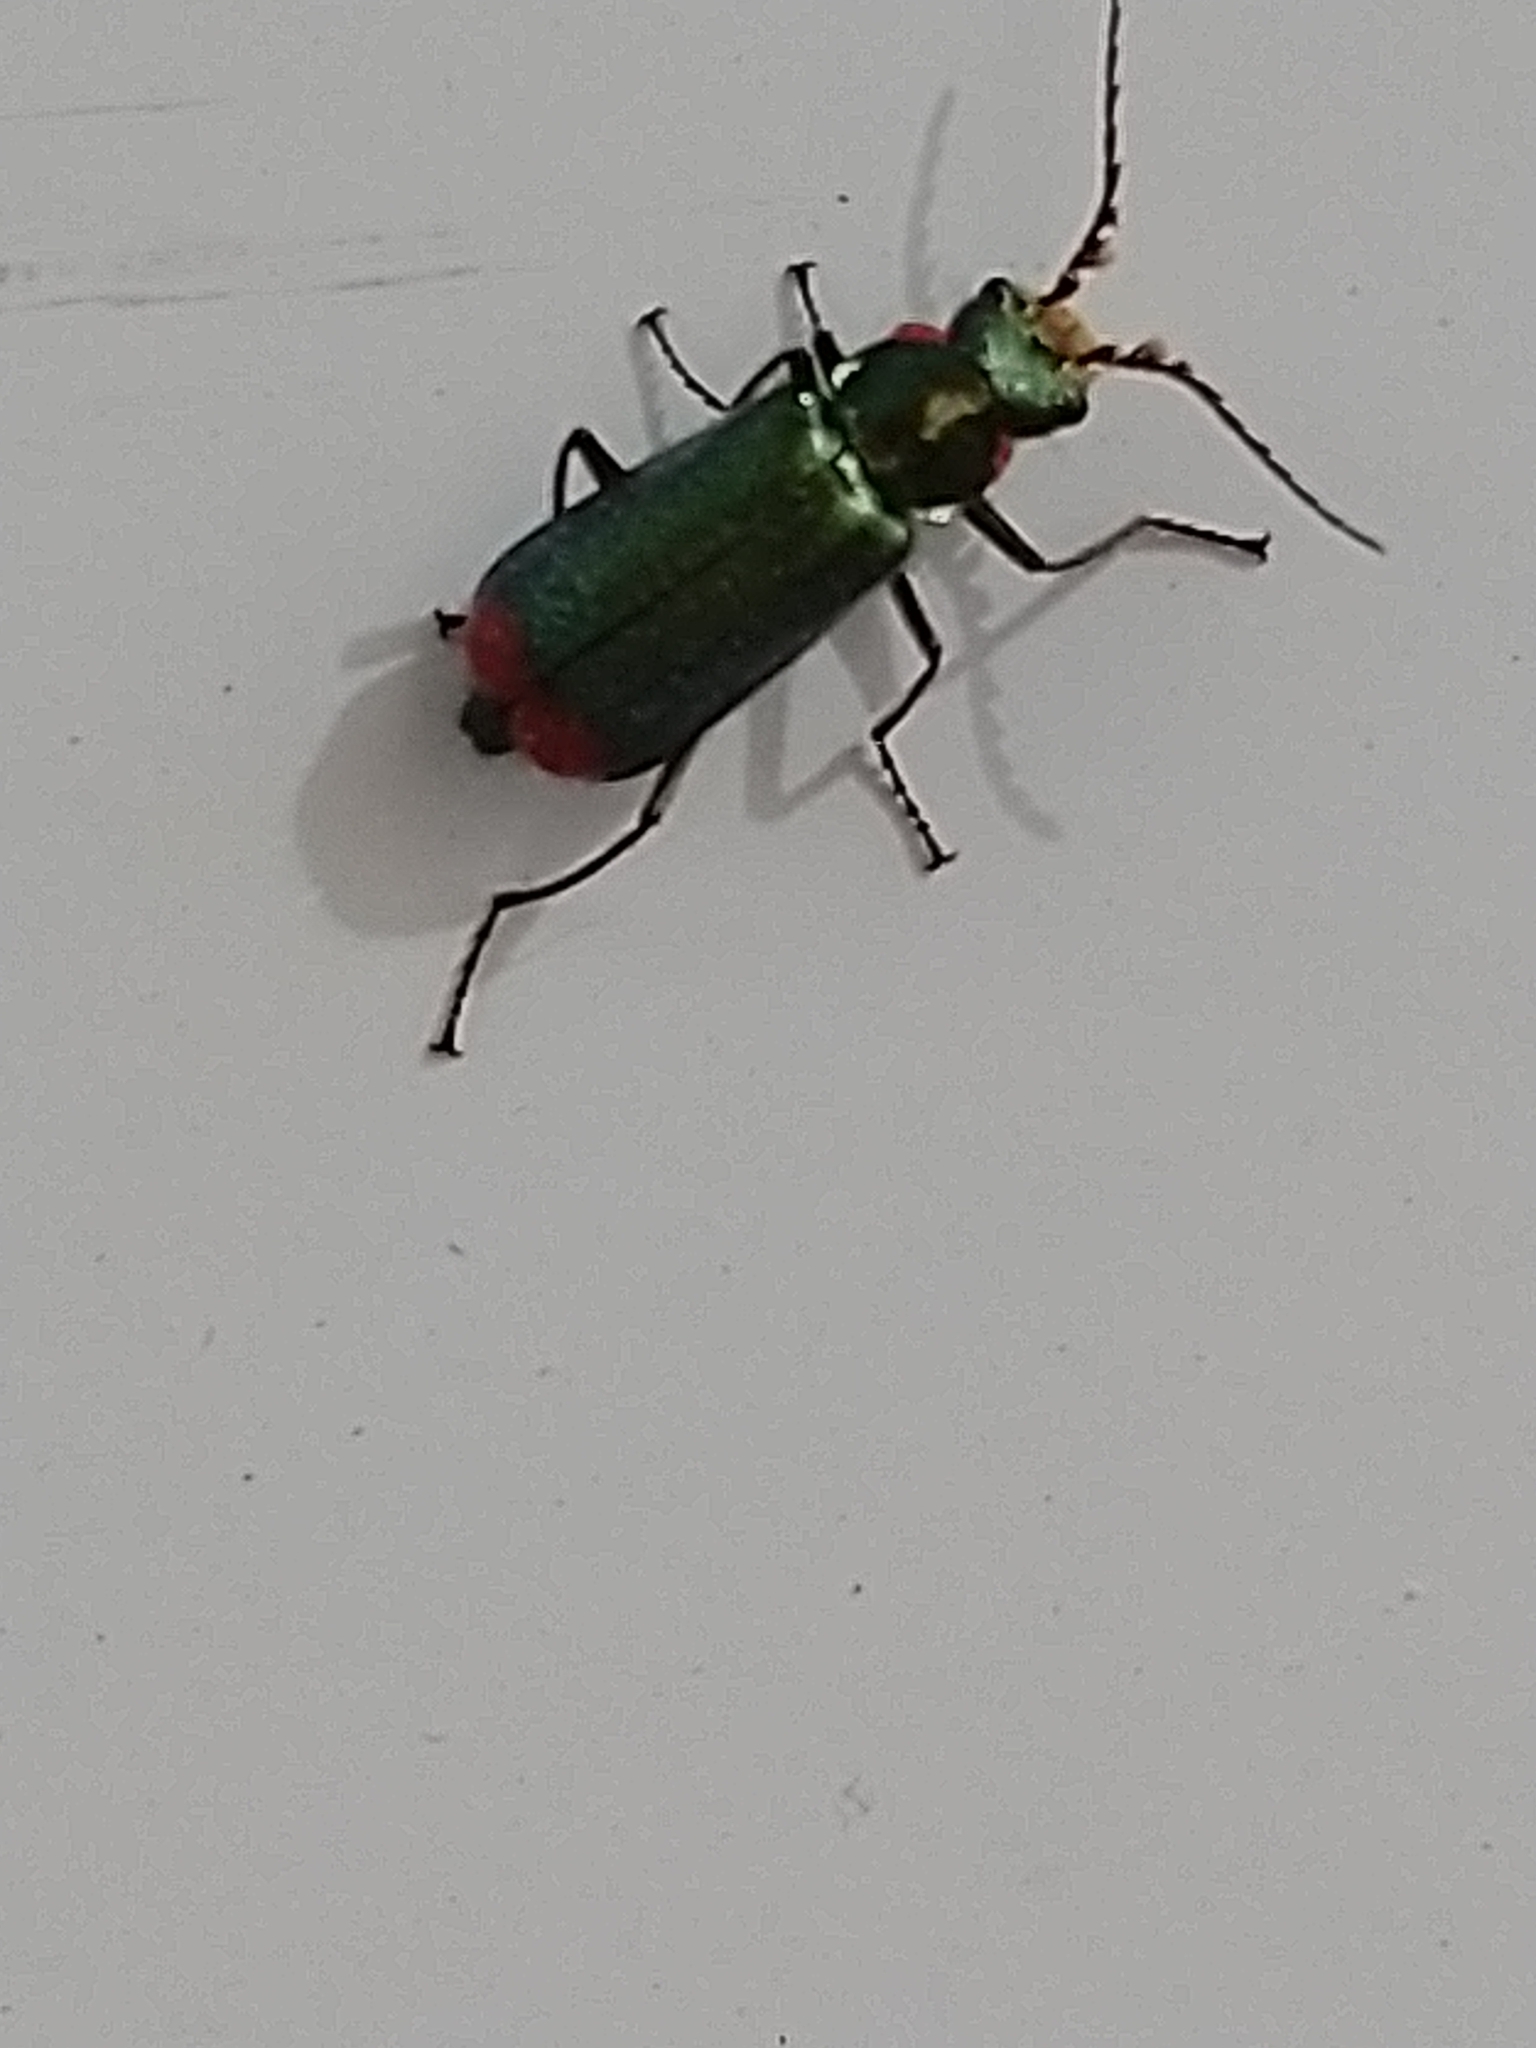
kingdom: Animalia
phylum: Arthropoda
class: Insecta
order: Coleoptera
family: Melyridae
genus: Malachius
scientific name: Malachius bipustulatus
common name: Malachite beetle
